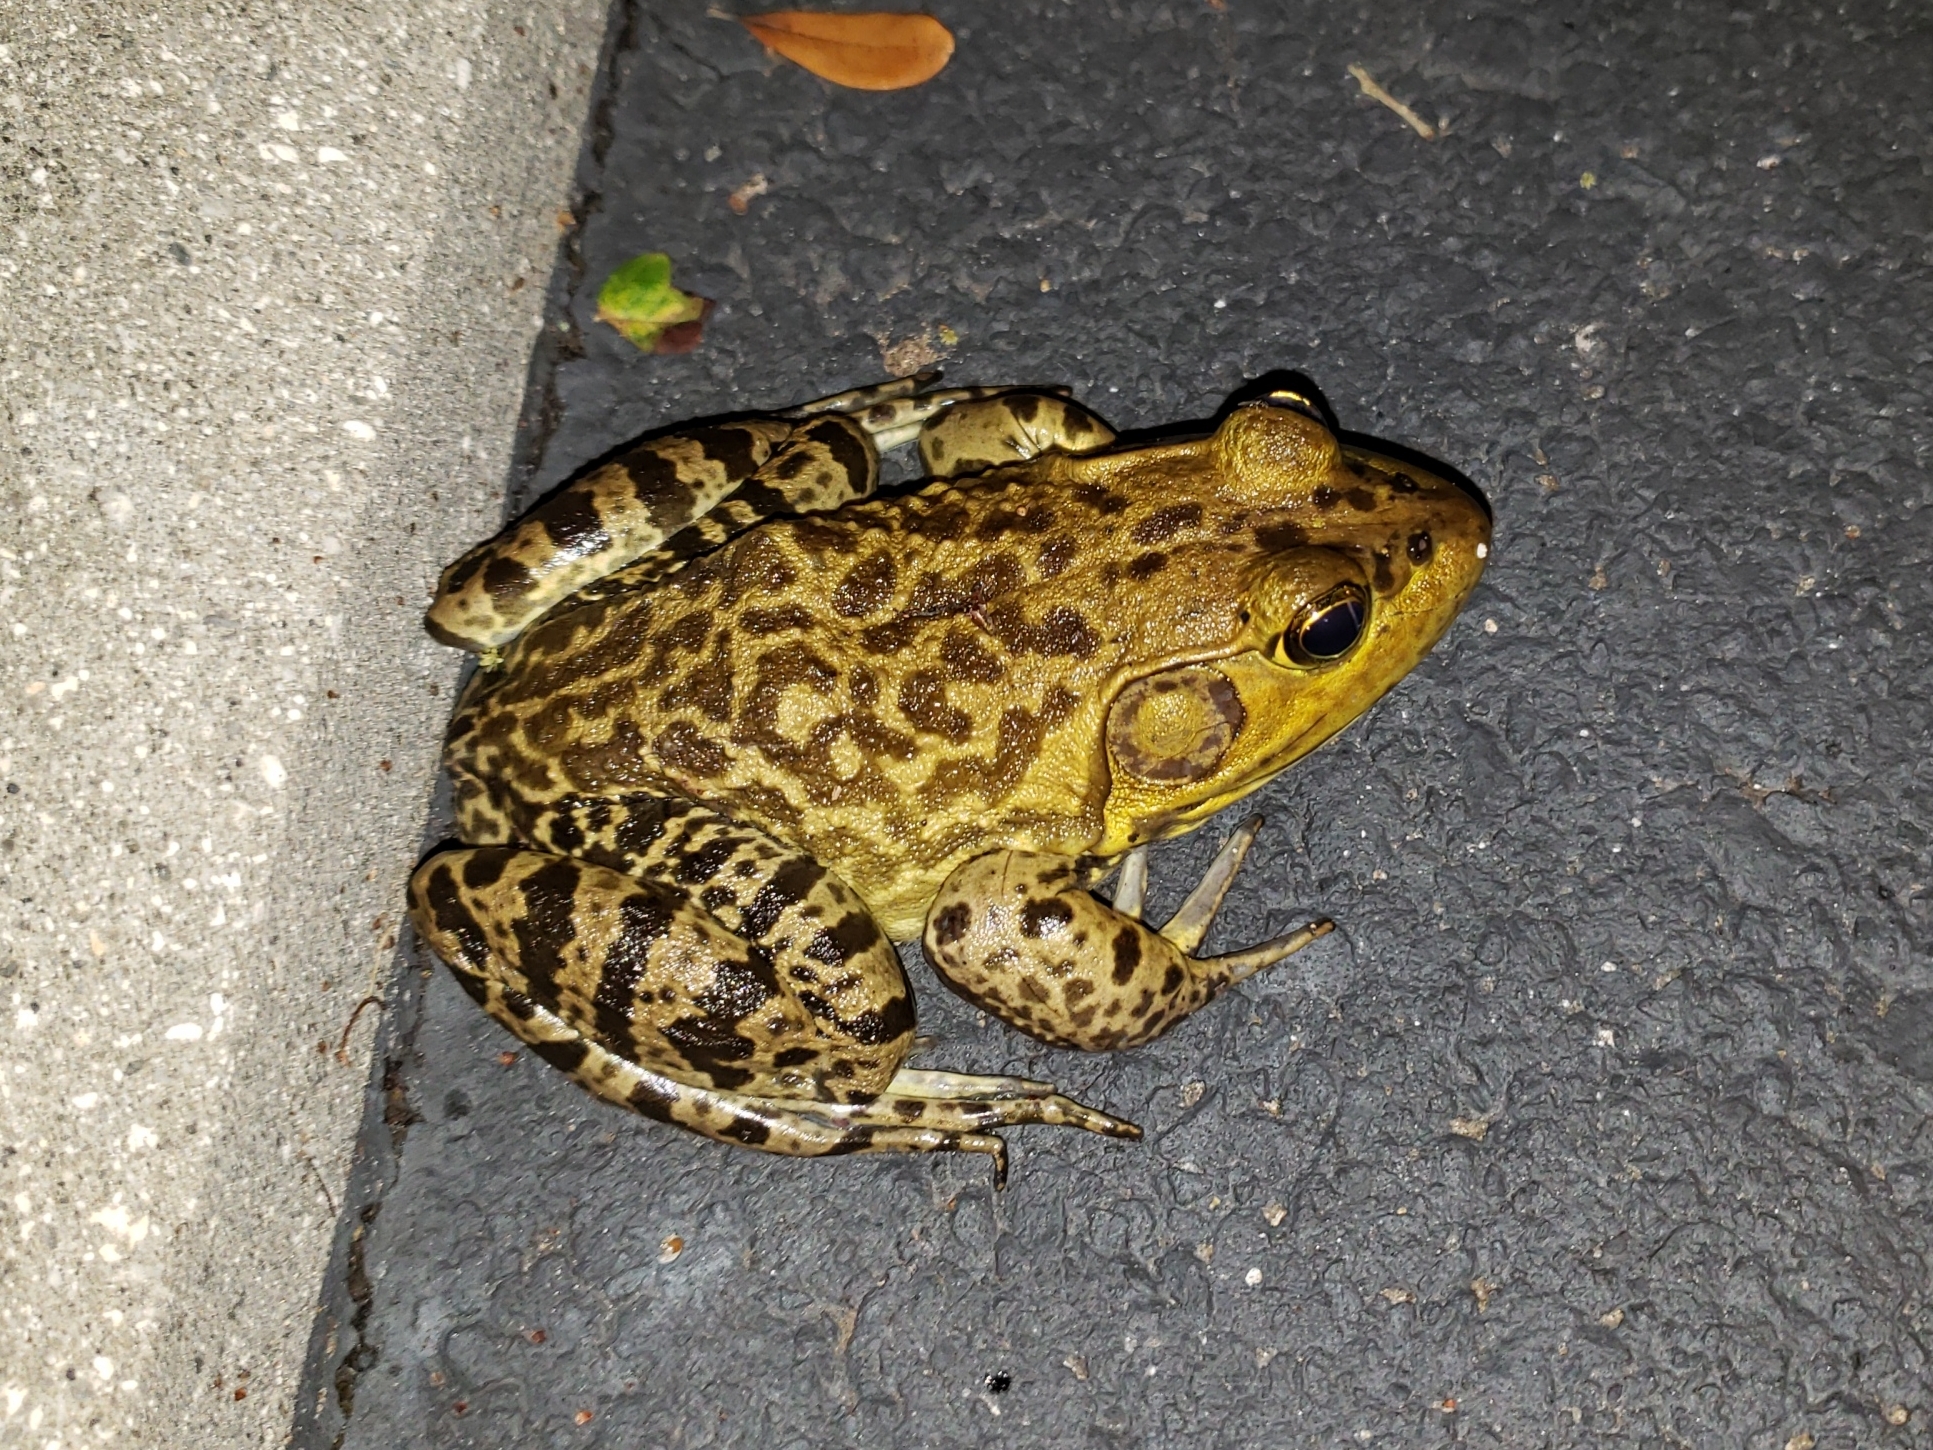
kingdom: Animalia
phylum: Chordata
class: Amphibia
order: Anura
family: Ranidae
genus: Lithobates
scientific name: Lithobates catesbeianus
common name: American bullfrog
